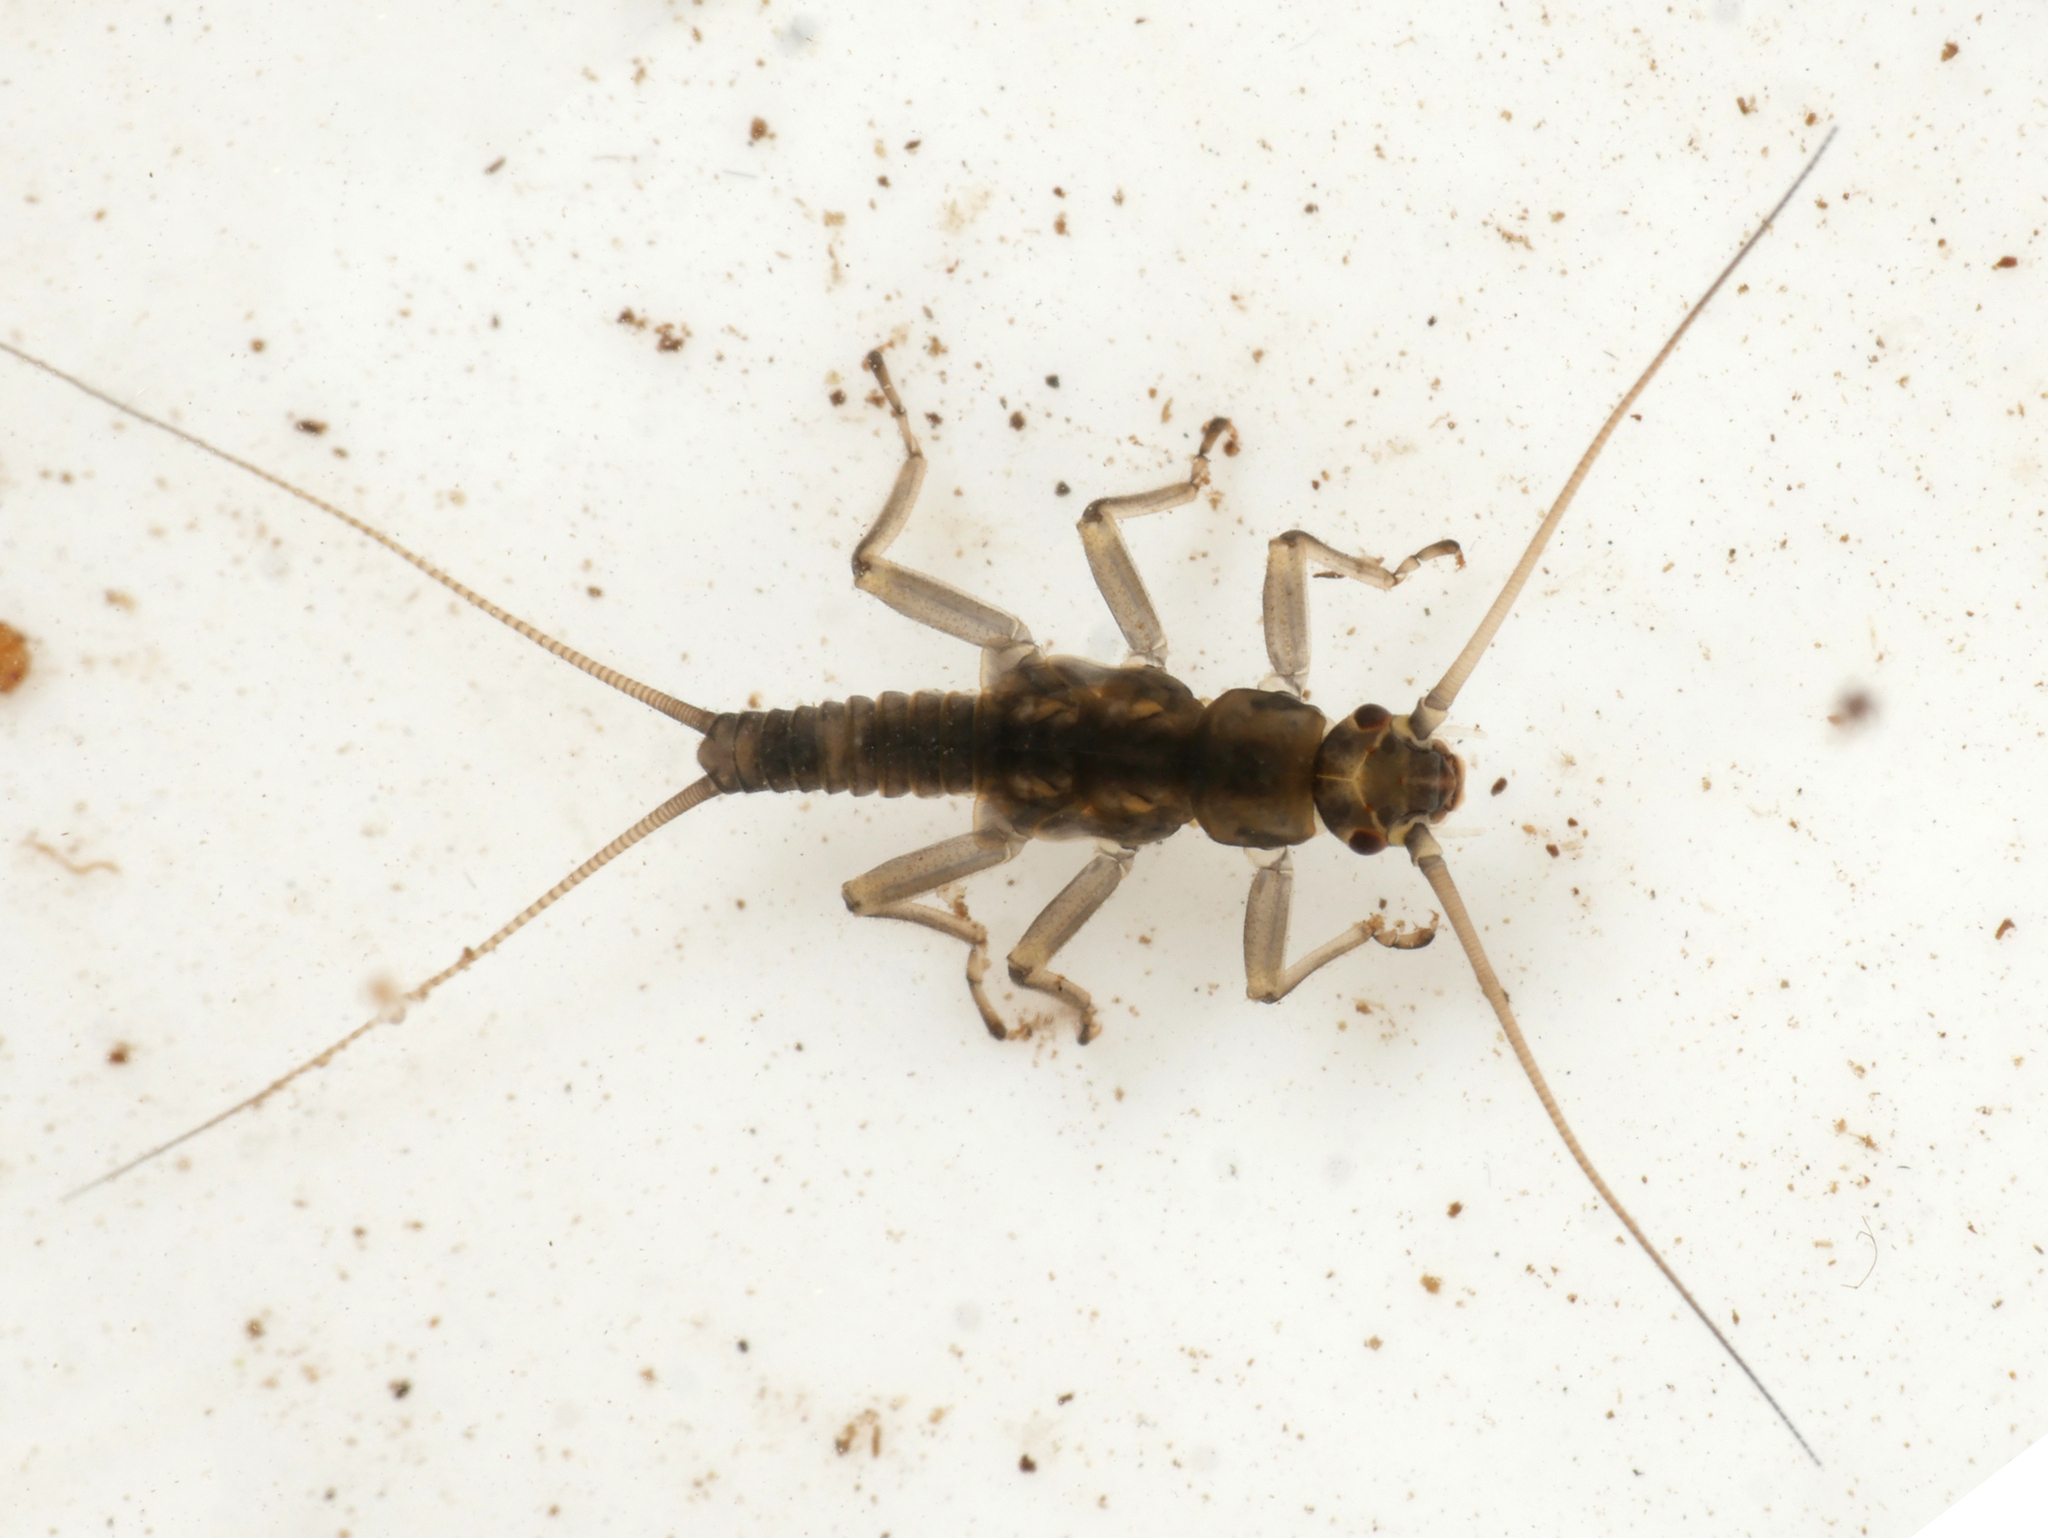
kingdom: Animalia
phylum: Arthropoda
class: Insecta
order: Plecoptera
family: Taeniopterygidae
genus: Brachyptera
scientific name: Brachyptera risi
